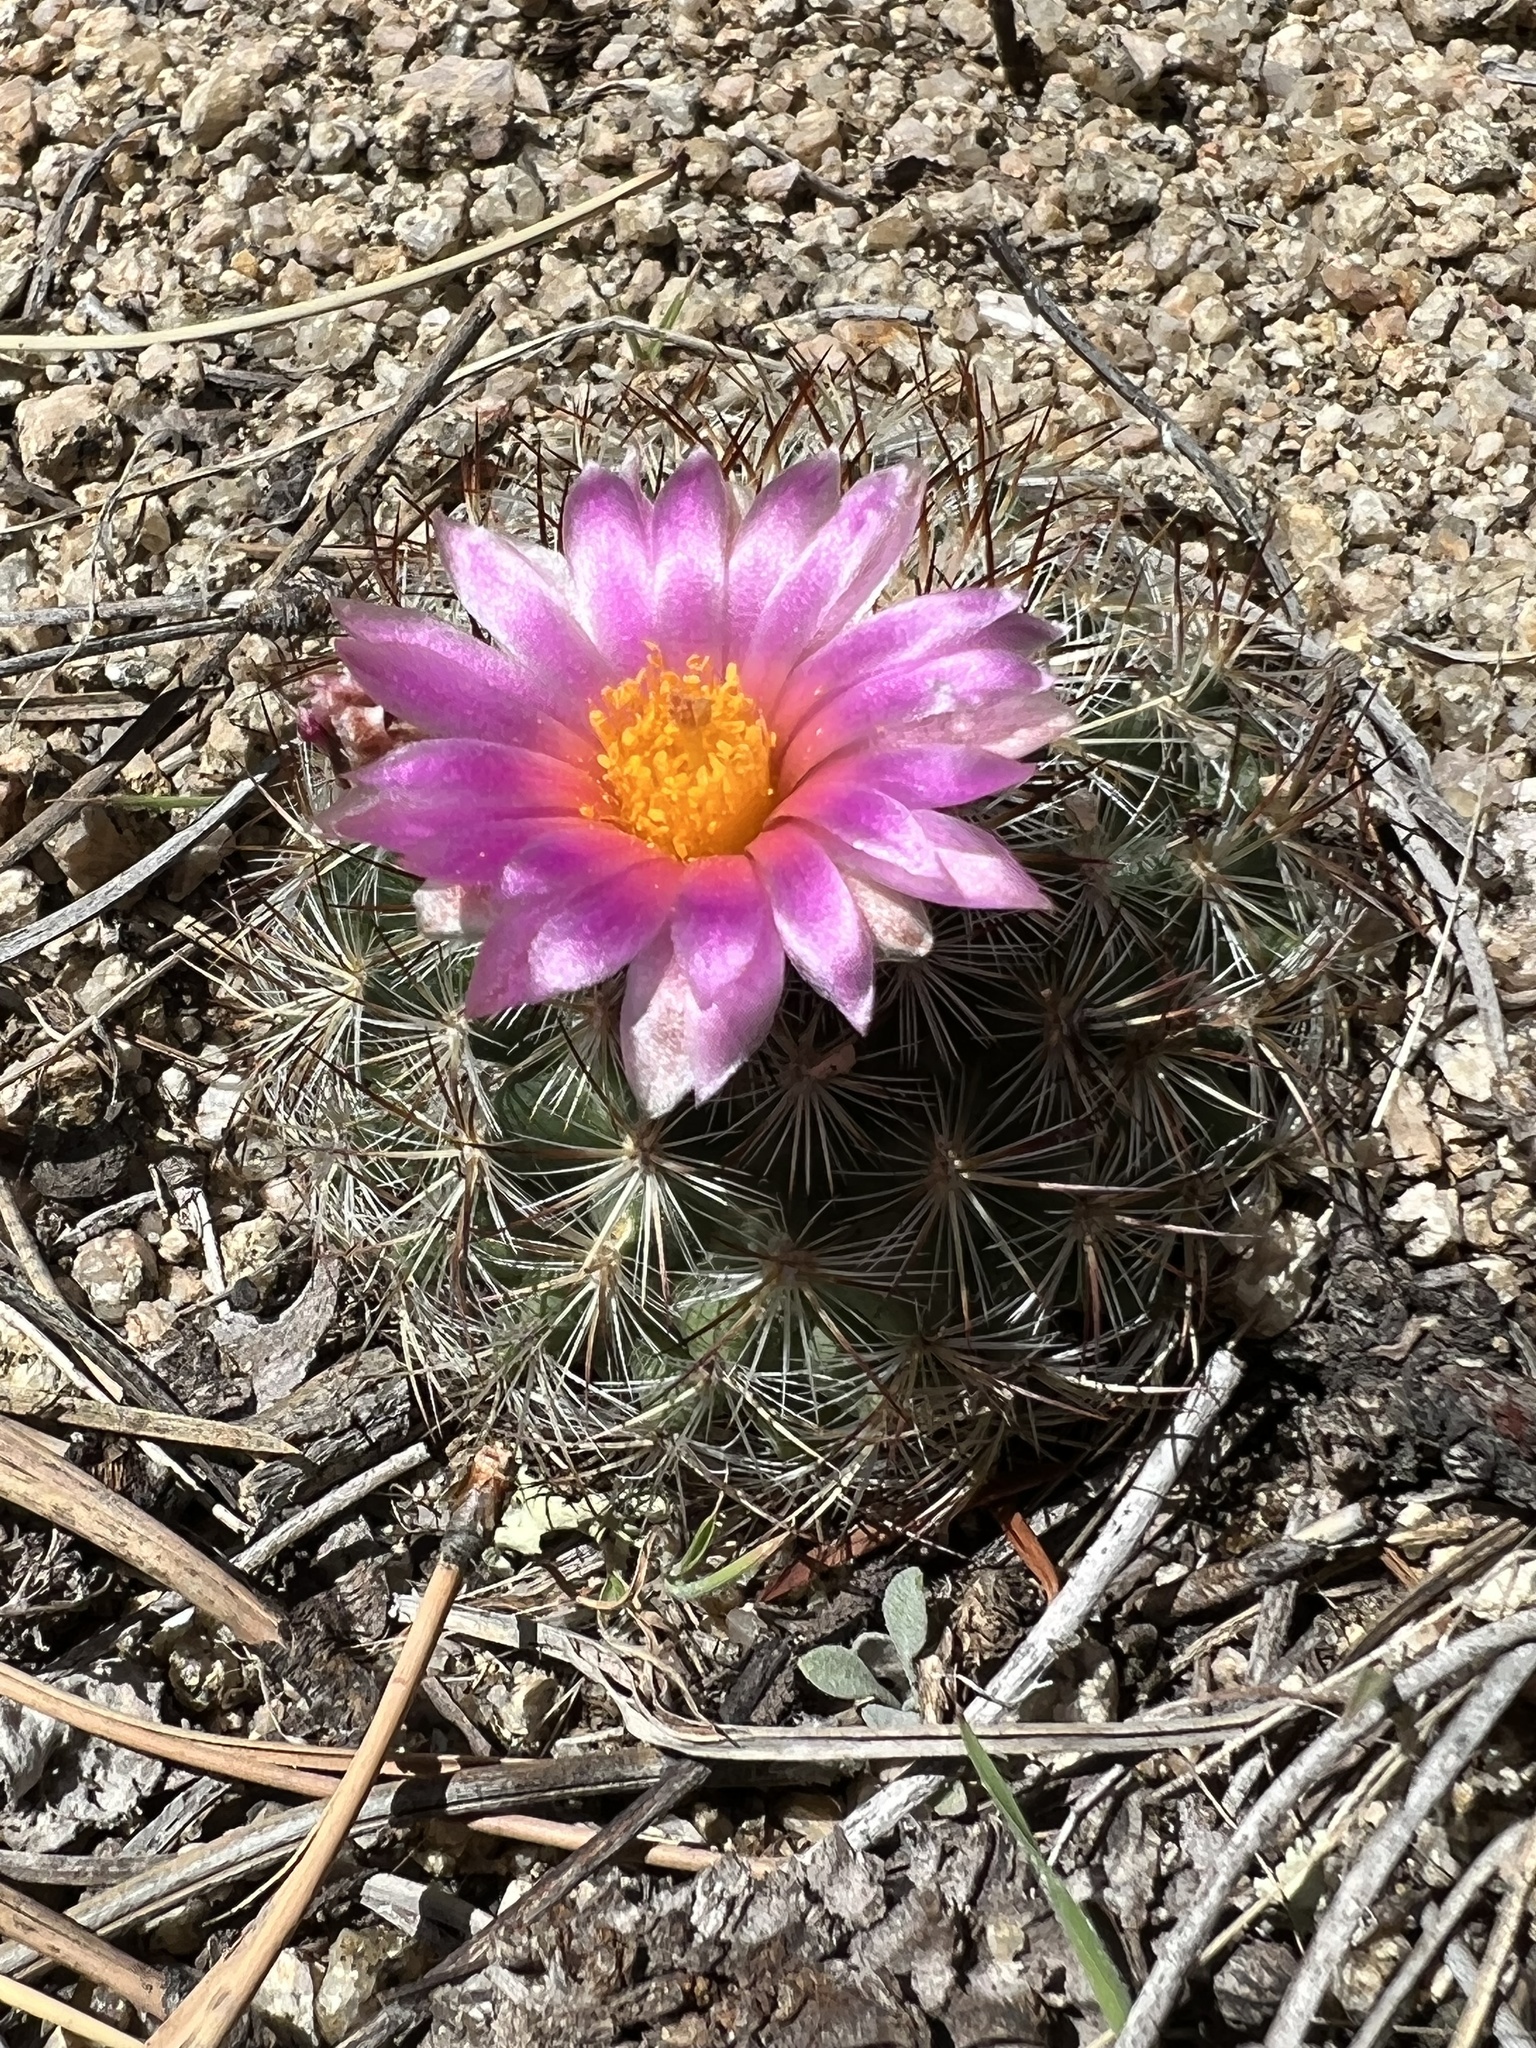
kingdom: Plantae
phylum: Tracheophyta
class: Magnoliopsida
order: Caryophyllales
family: Cactaceae
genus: Pediocactus
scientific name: Pediocactus simpsonii
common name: Simpson's hedgehog cactus
